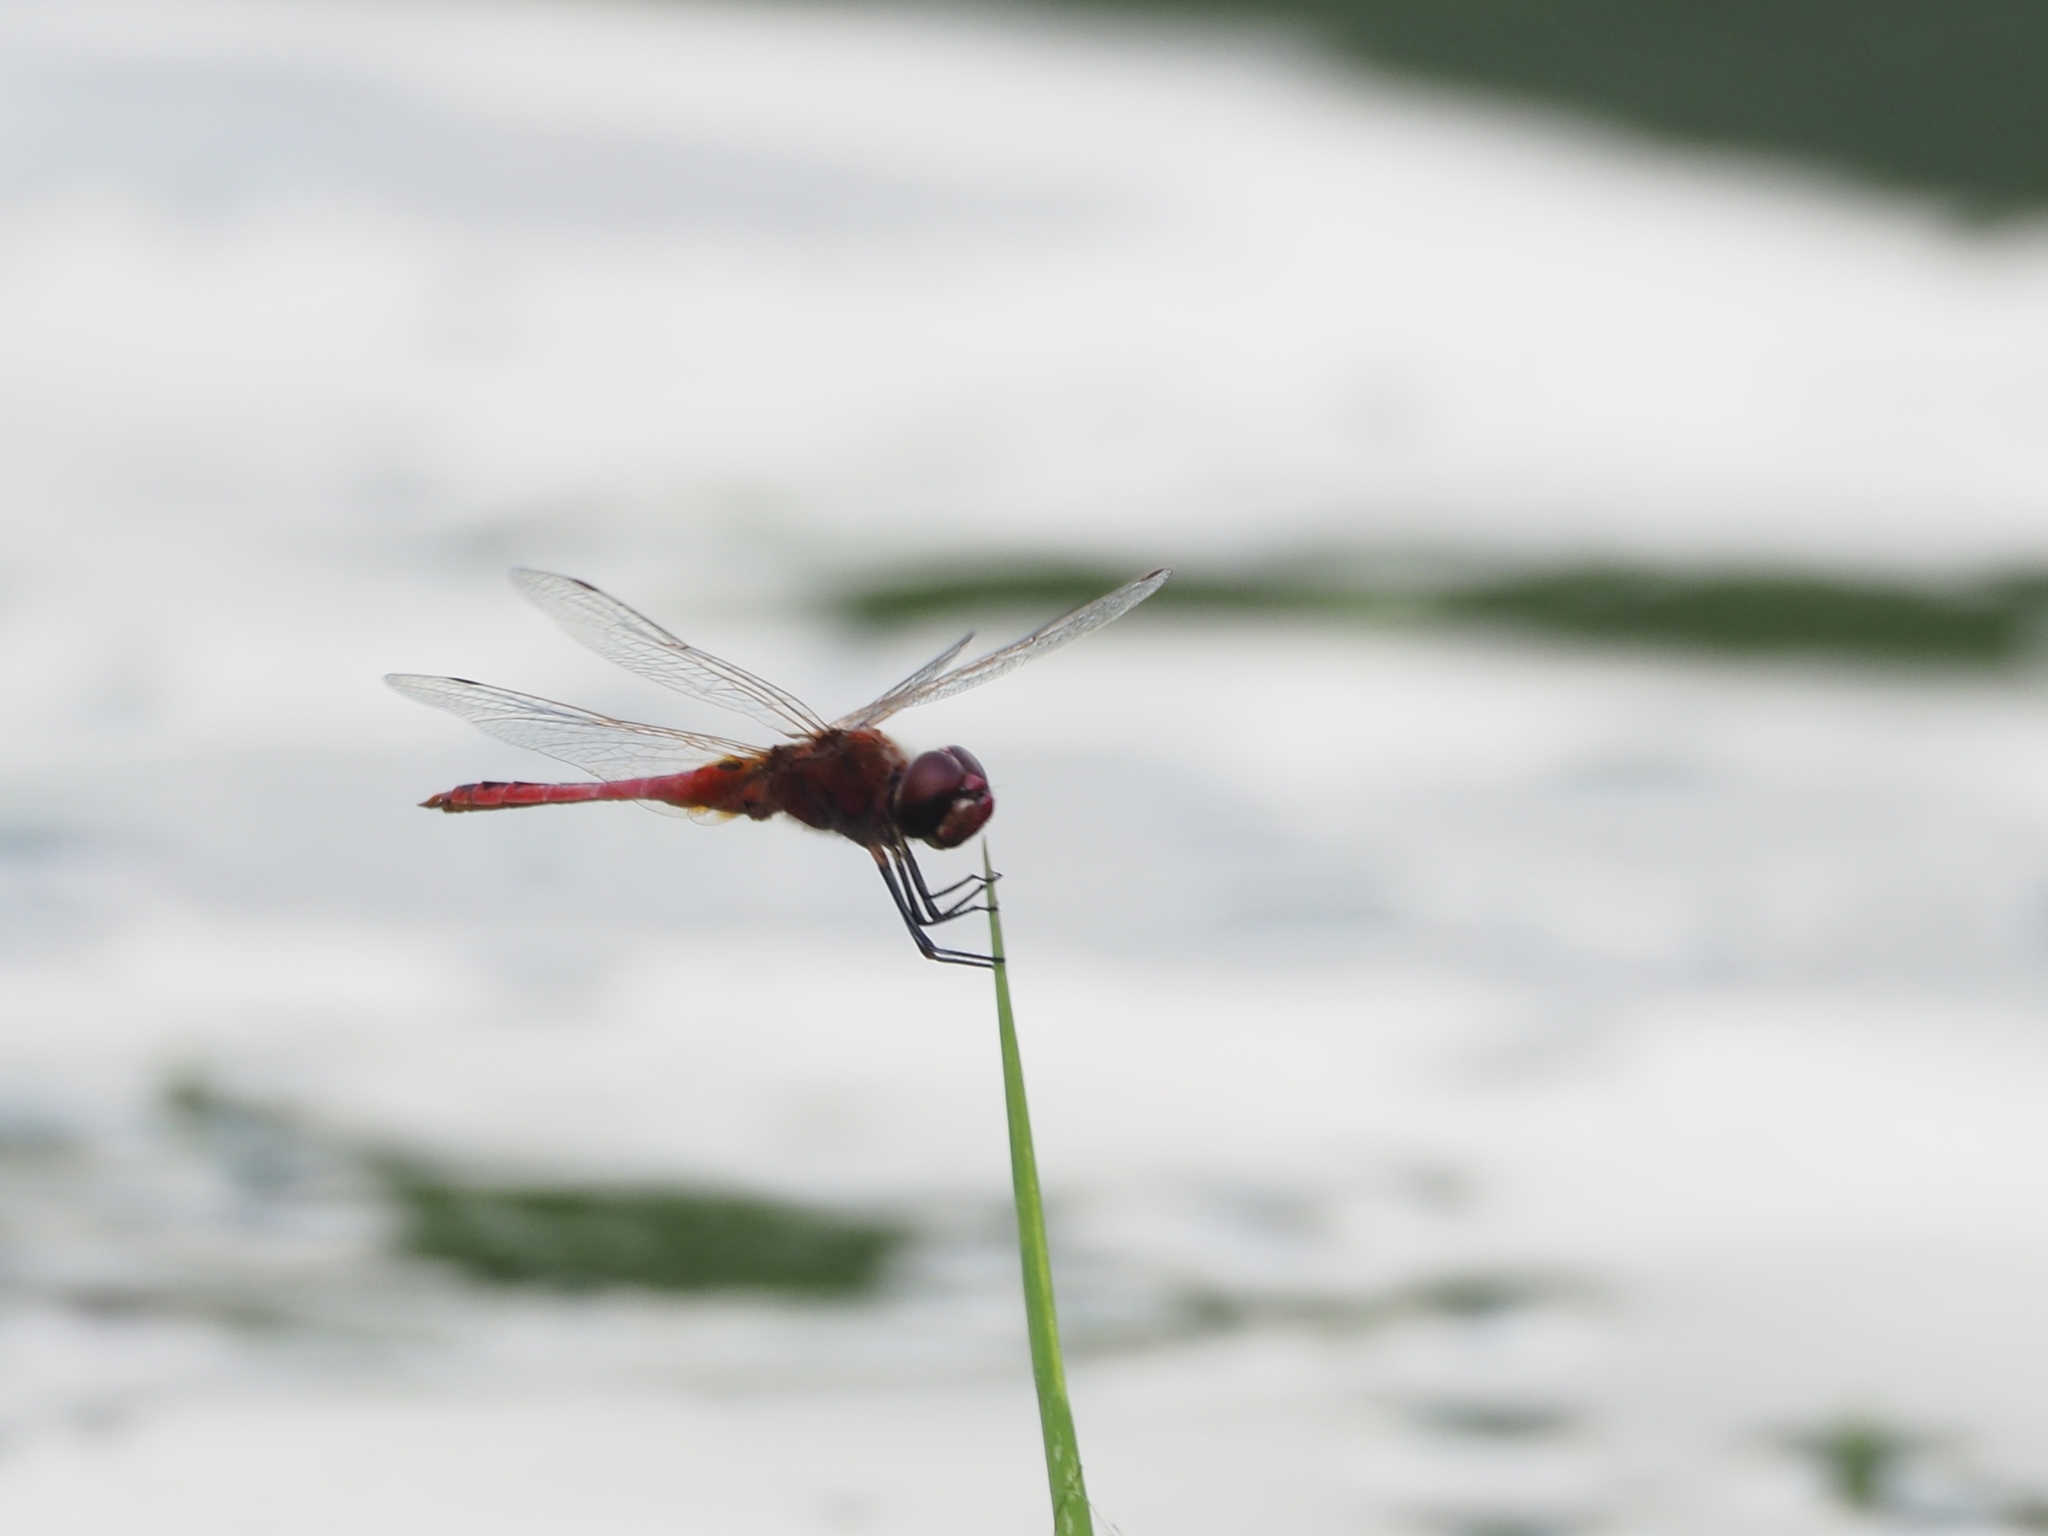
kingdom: Animalia
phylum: Arthropoda
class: Insecta
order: Odonata
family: Libellulidae
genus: Macrodiplax
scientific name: Macrodiplax cora
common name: Coastal glider
